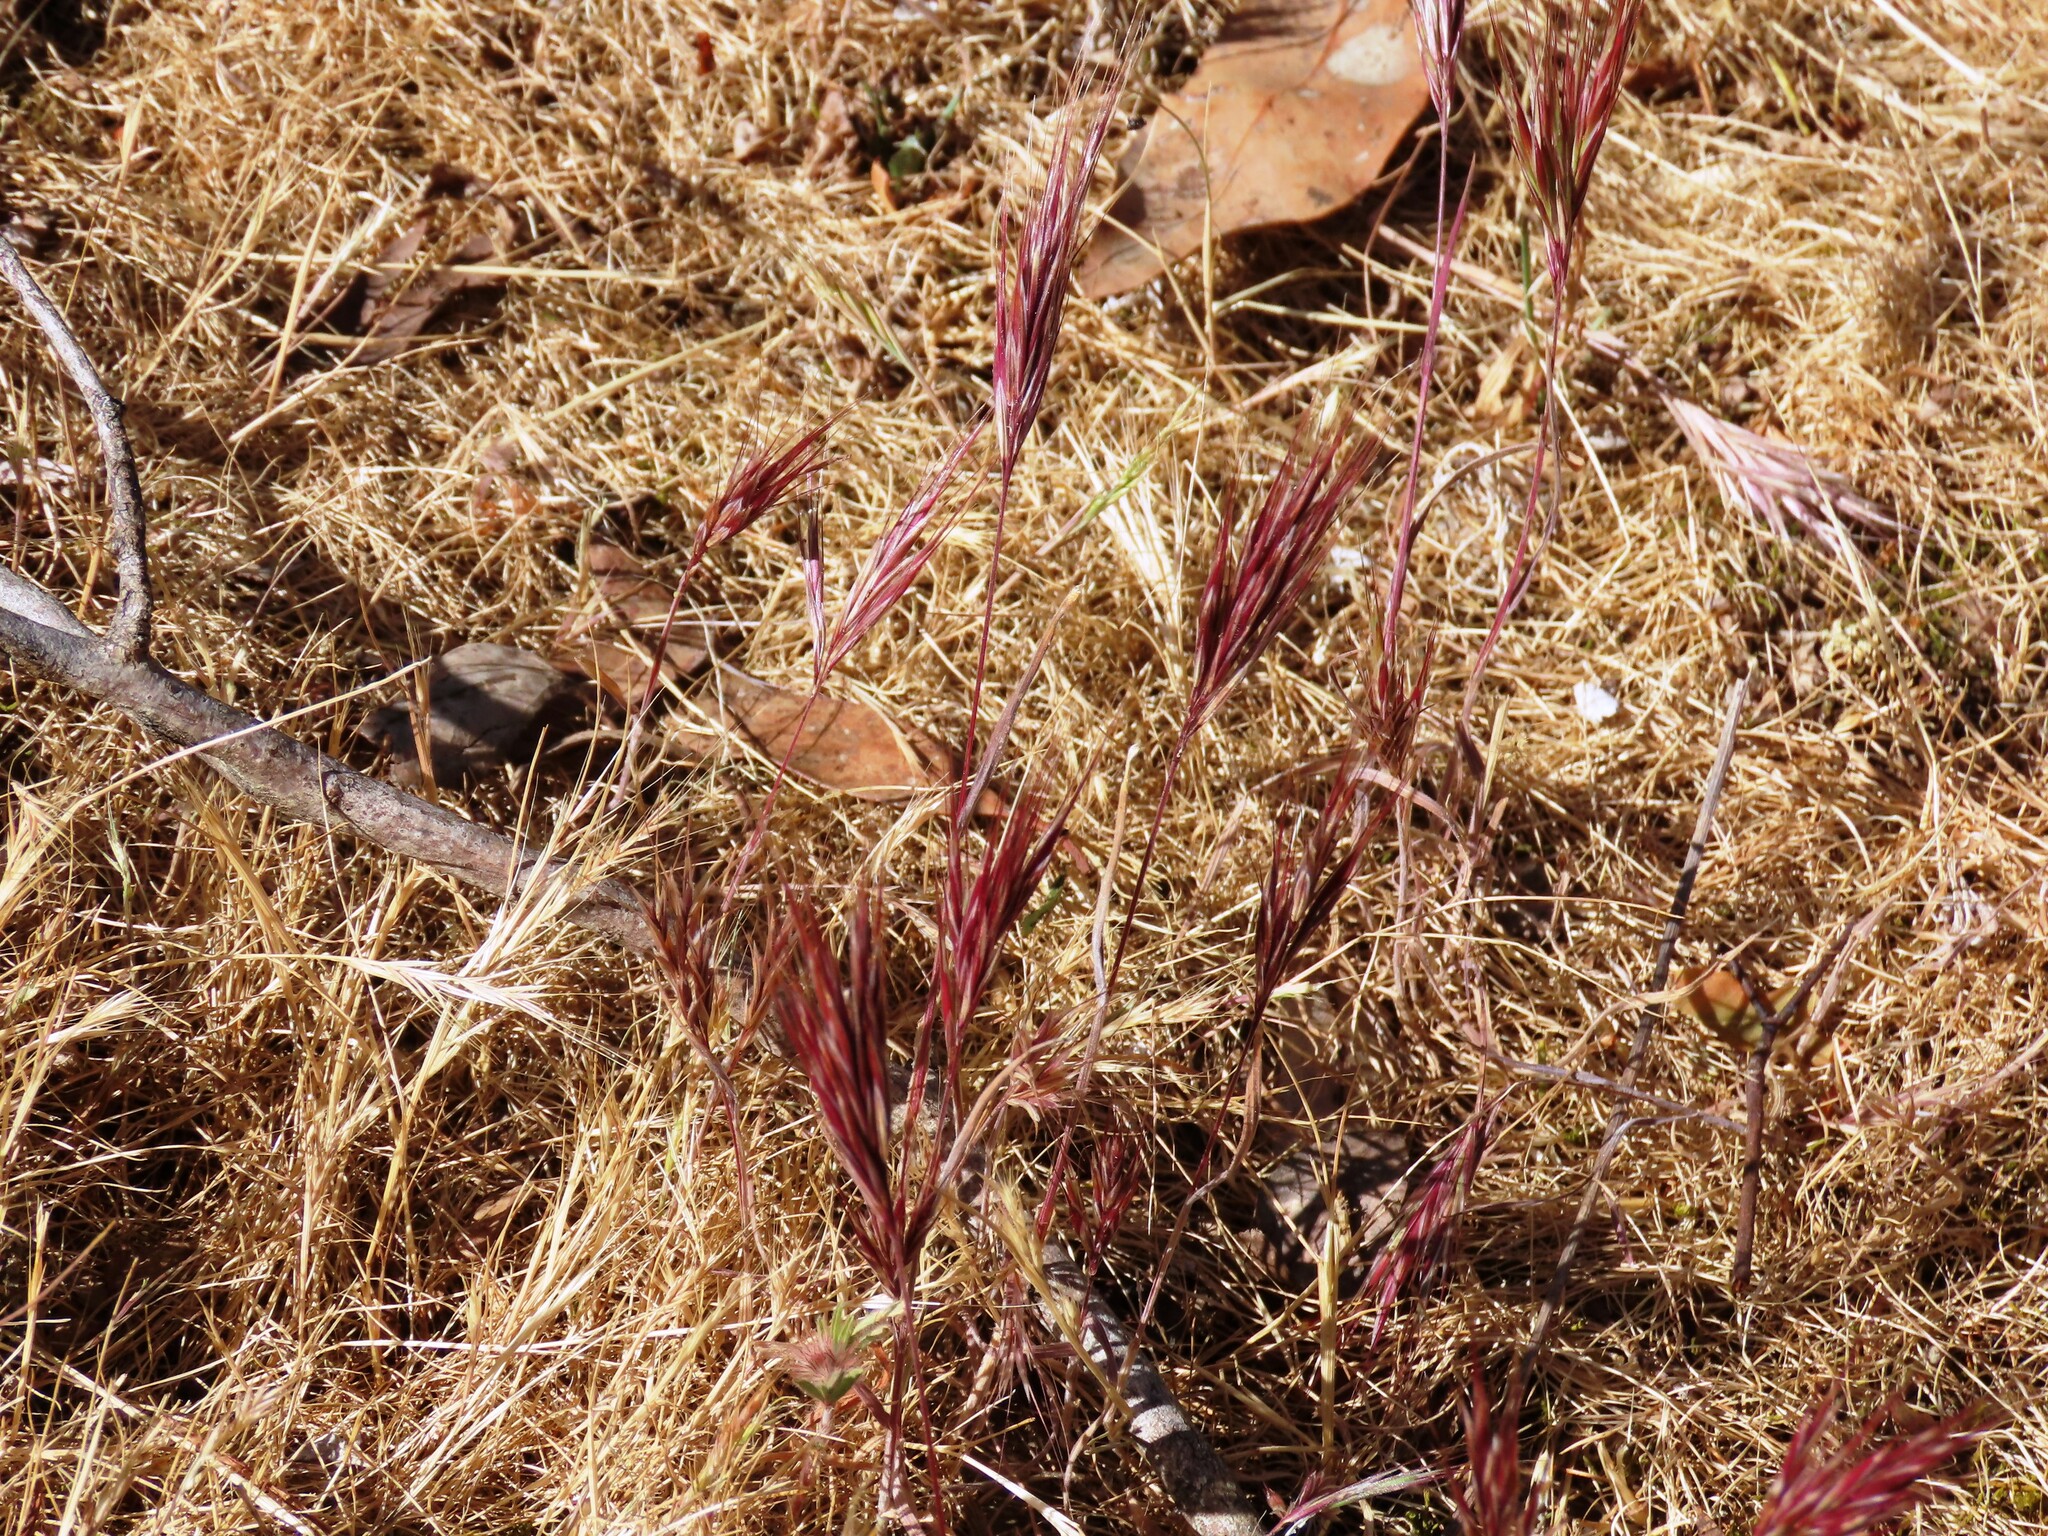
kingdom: Plantae
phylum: Tracheophyta
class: Liliopsida
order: Poales
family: Poaceae
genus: Bromus
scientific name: Bromus rubens
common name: Red brome
